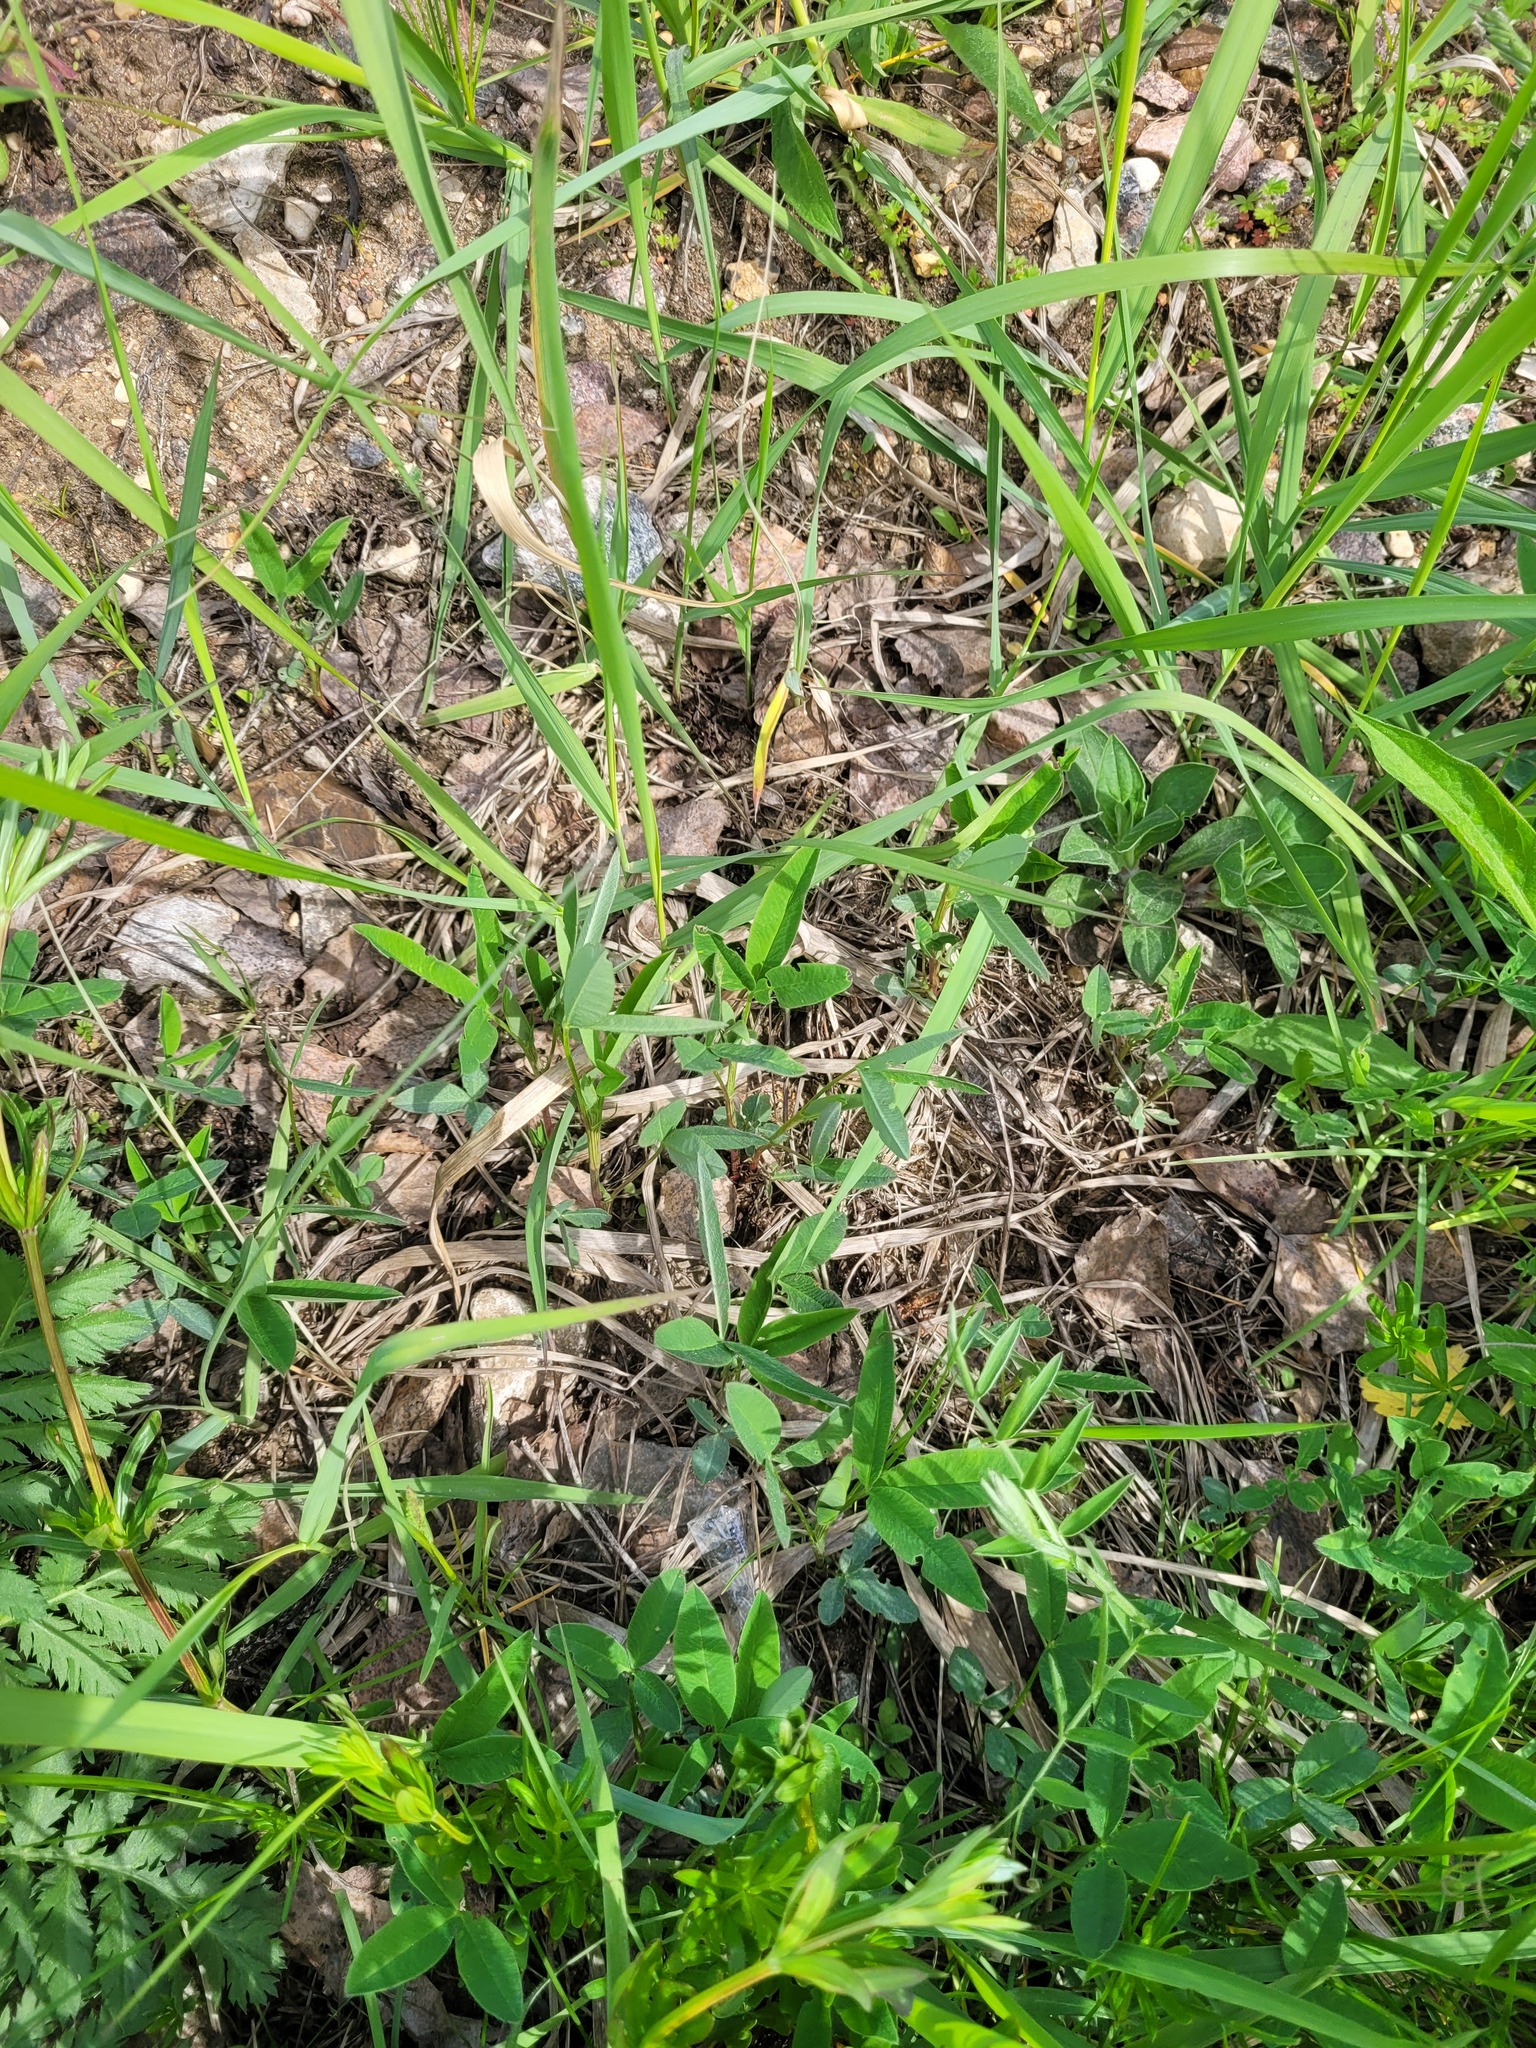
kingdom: Plantae
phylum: Tracheophyta
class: Magnoliopsida
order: Fabales
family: Fabaceae
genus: Trifolium
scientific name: Trifolium medium
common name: Zigzag clover
